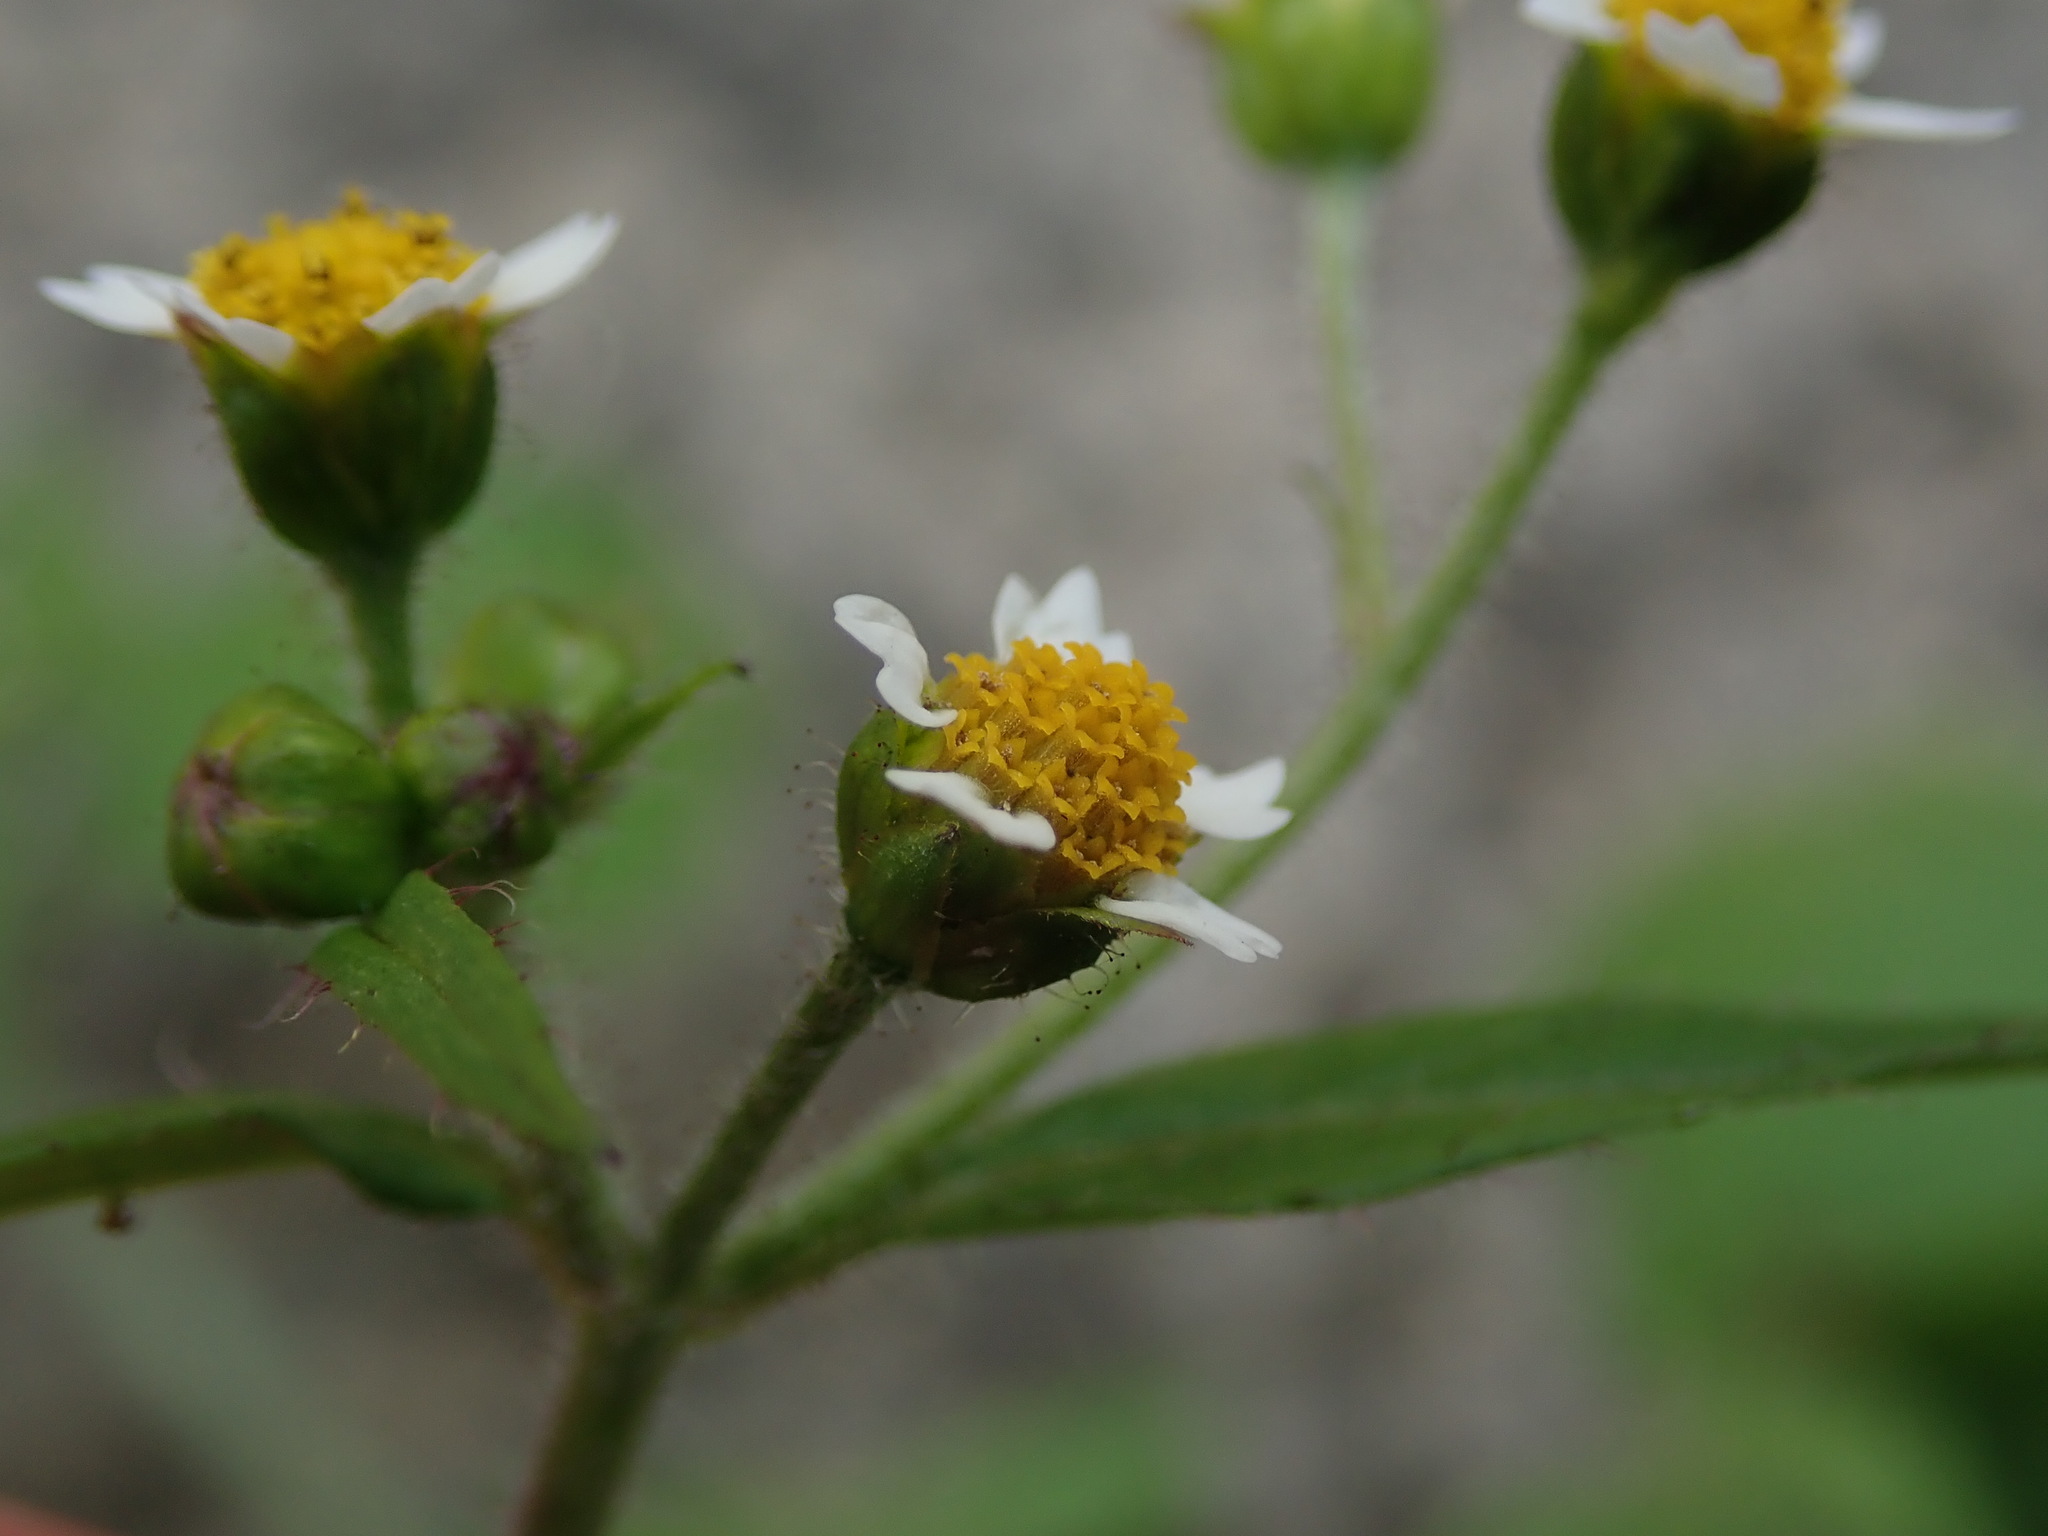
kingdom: Plantae
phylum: Tracheophyta
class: Magnoliopsida
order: Asterales
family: Asteraceae
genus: Galinsoga
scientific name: Galinsoga quadriradiata
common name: Shaggy soldier
